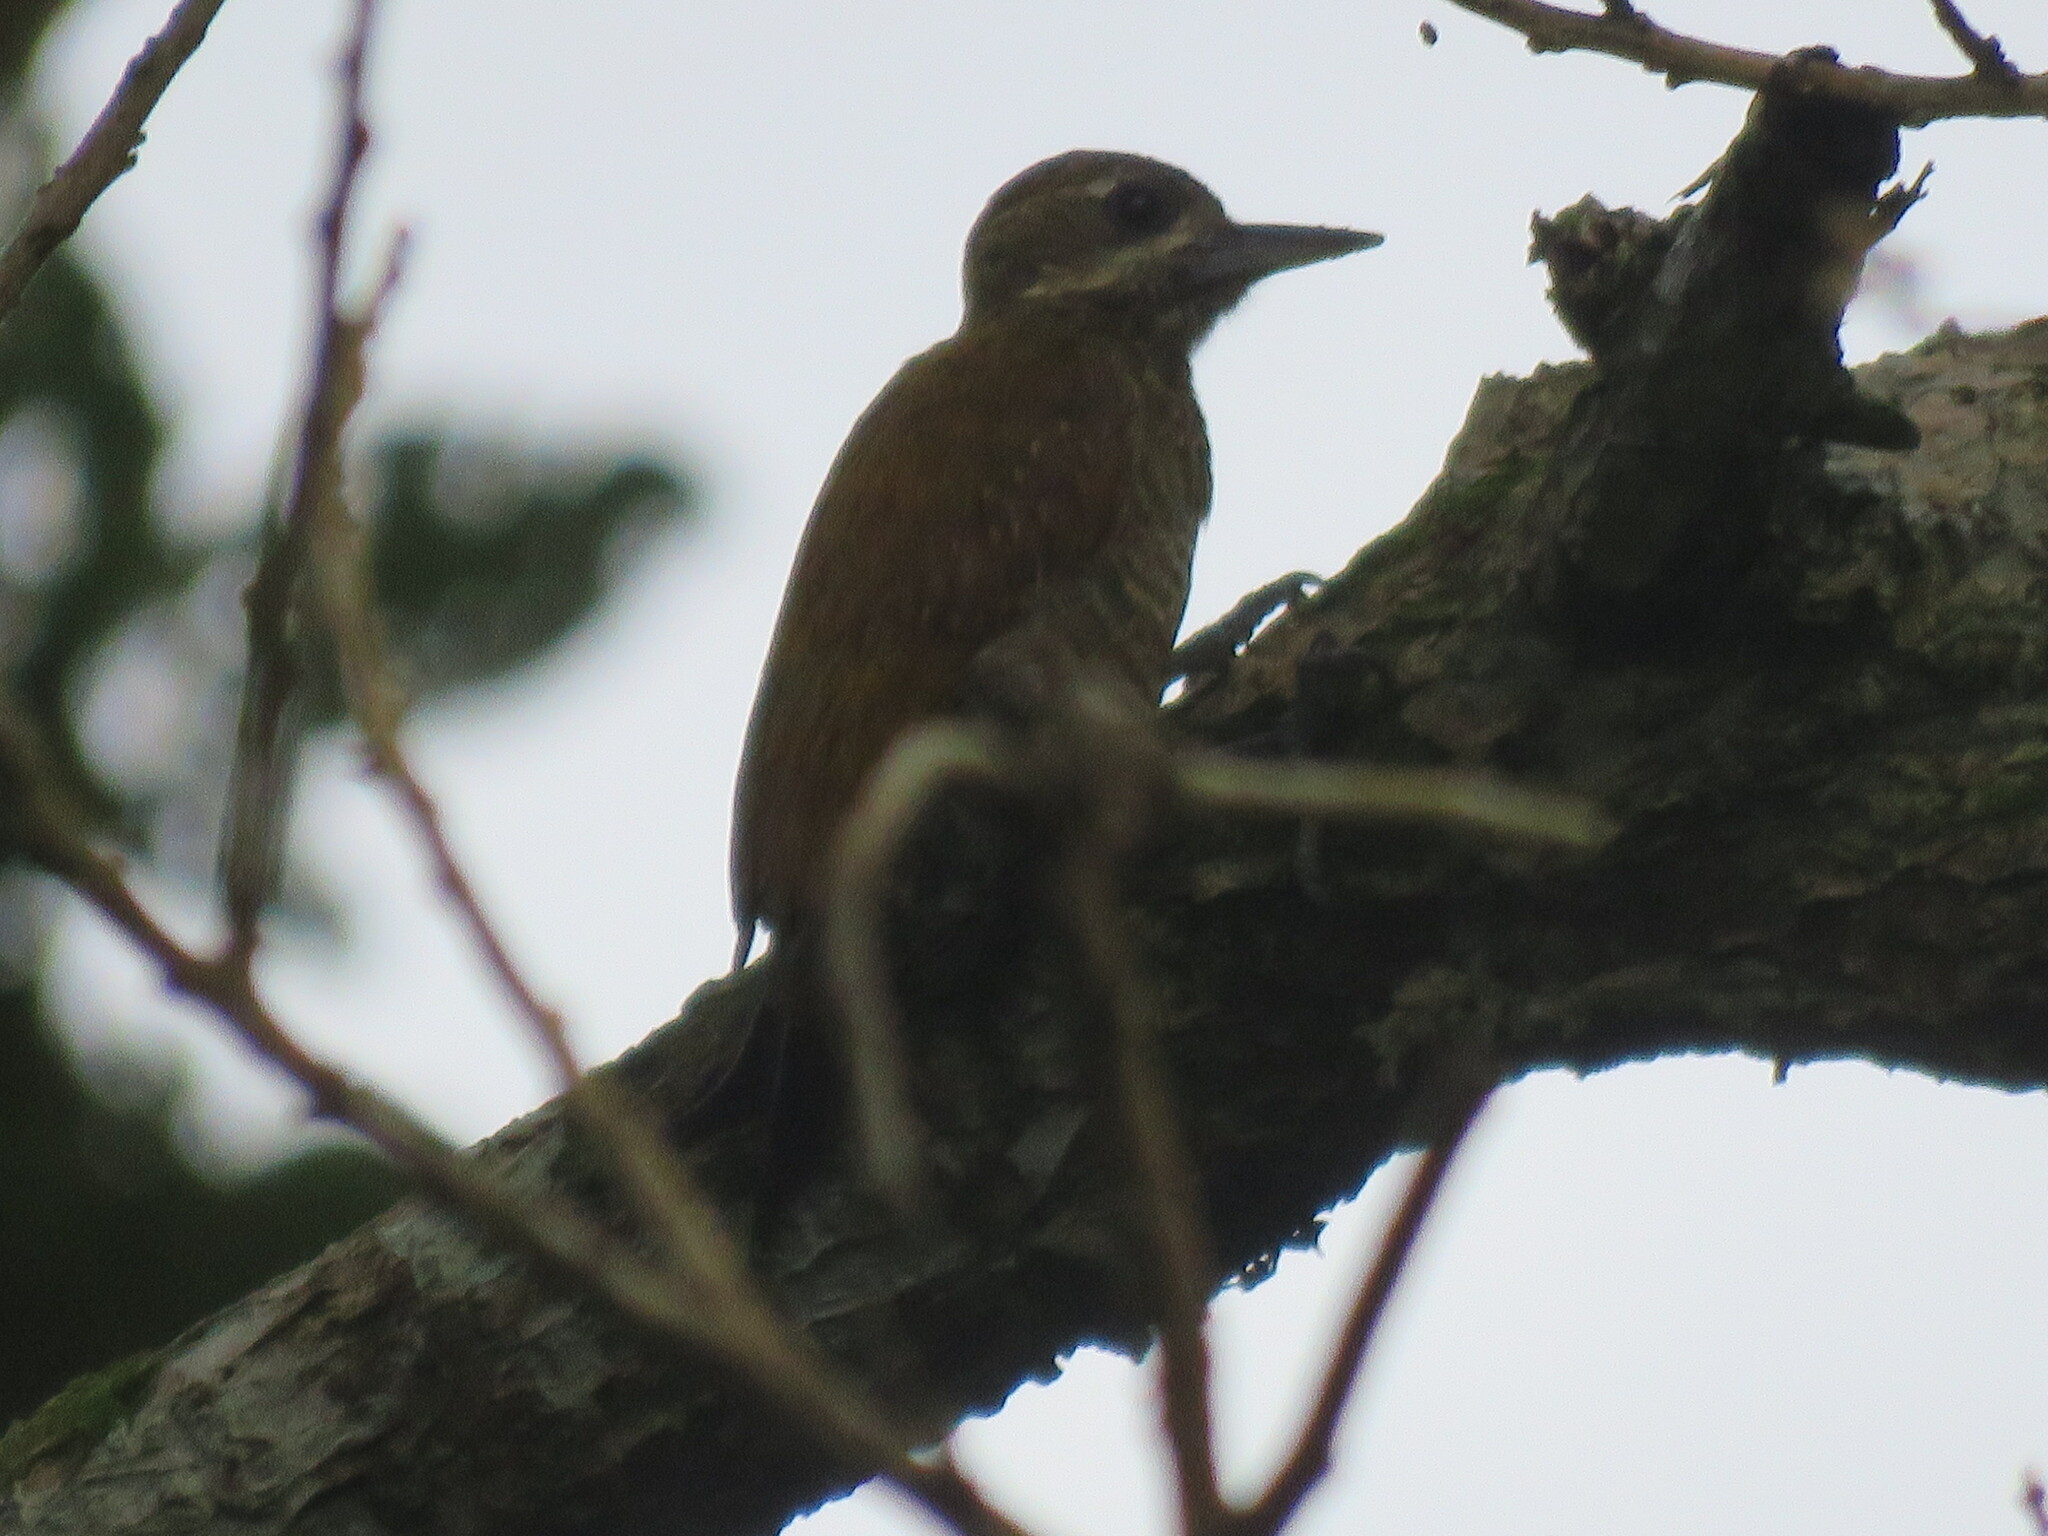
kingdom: Animalia
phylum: Chordata
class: Aves
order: Piciformes
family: Picidae
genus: Veniliornis
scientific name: Veniliornis passerinus
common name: Little woodpecker
